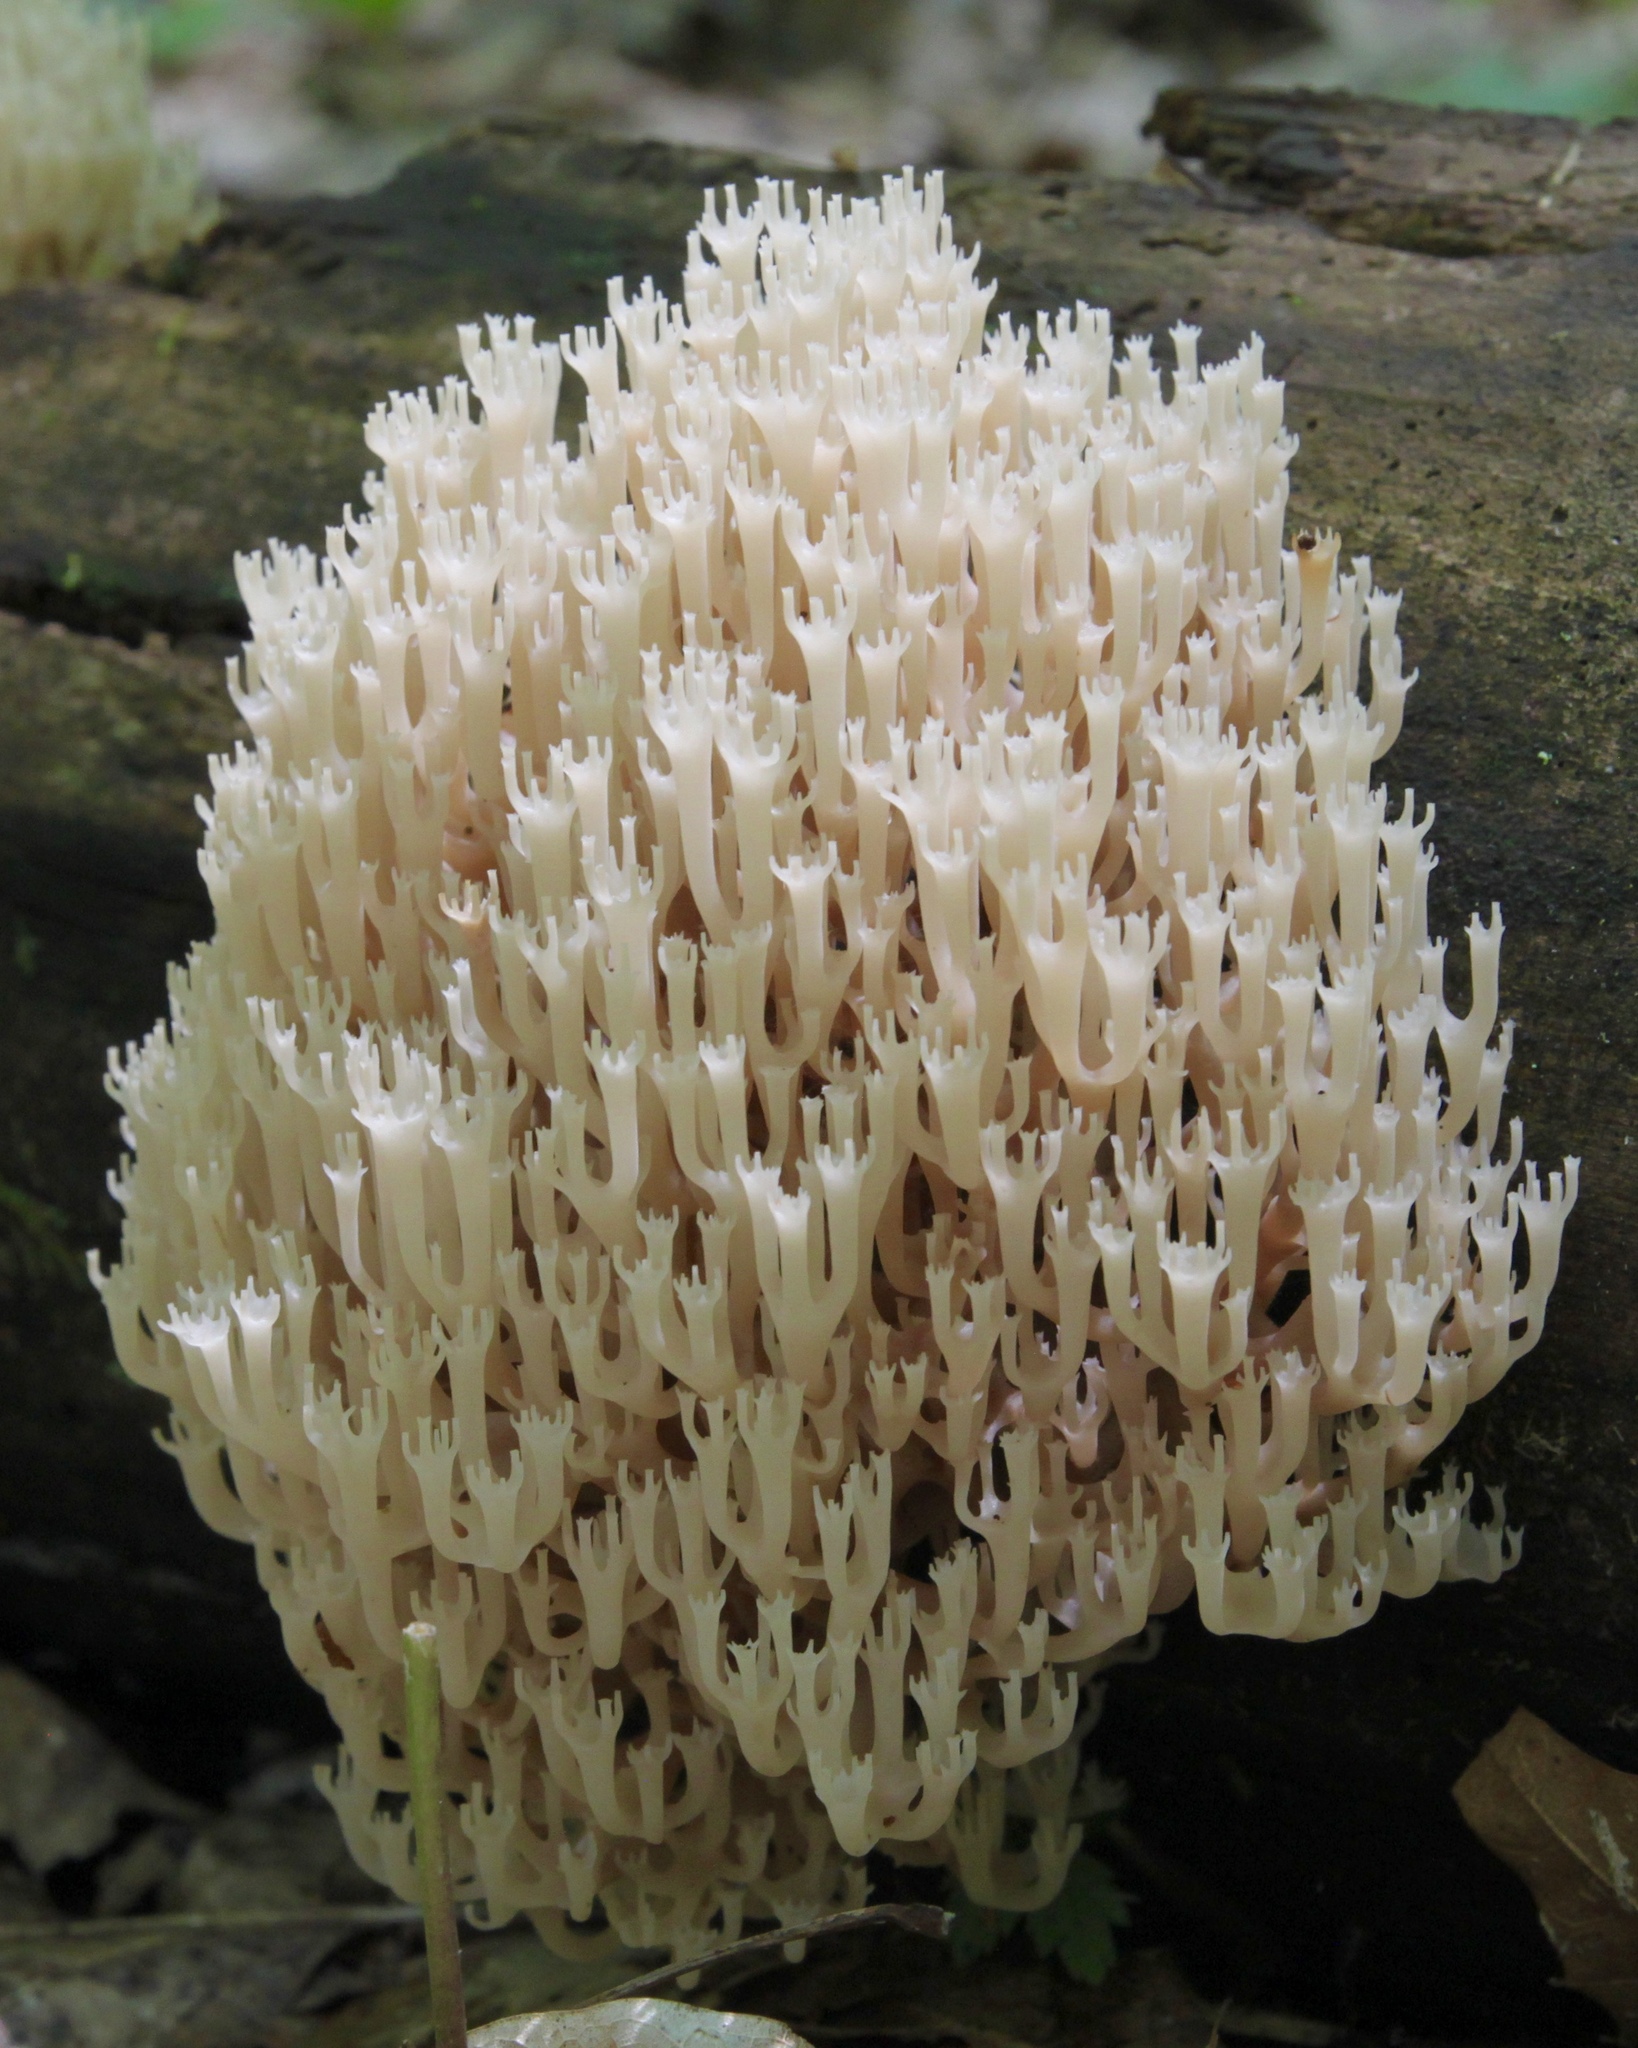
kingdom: Fungi
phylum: Basidiomycota
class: Agaricomycetes
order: Russulales
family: Auriscalpiaceae
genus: Artomyces
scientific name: Artomyces pyxidatus
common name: Crown-tipped coral fungus
